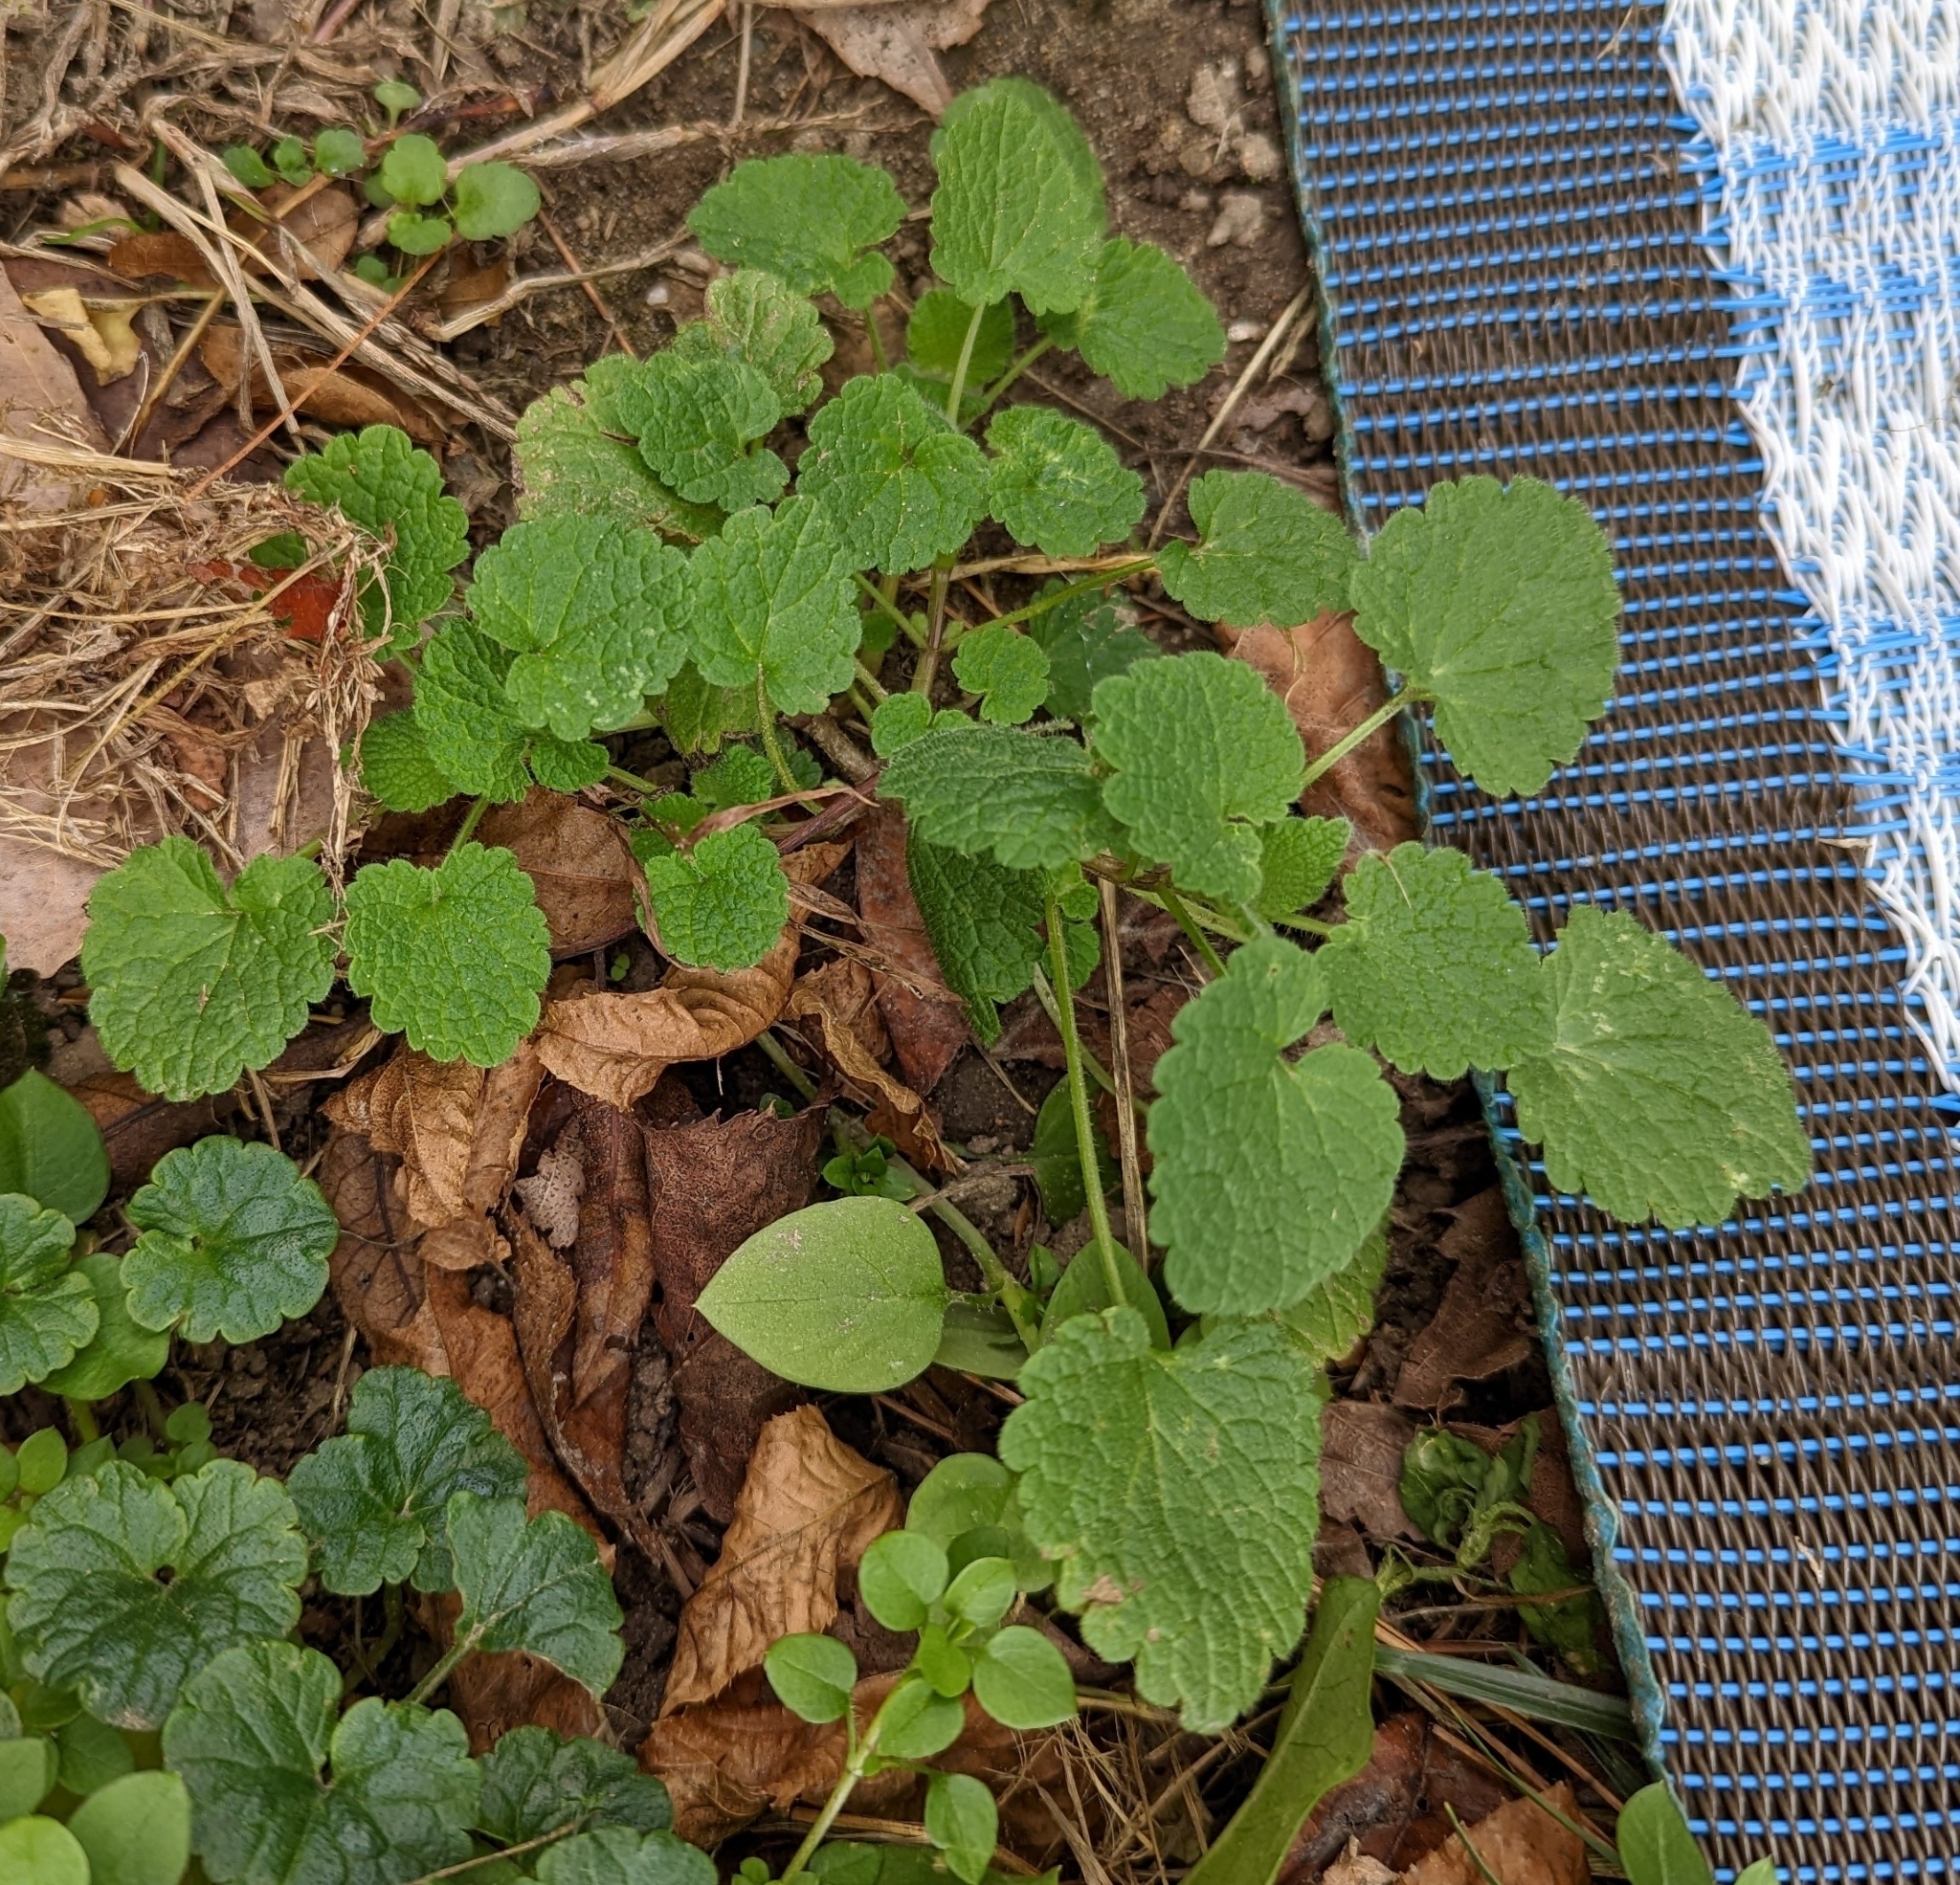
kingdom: Plantae
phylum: Tracheophyta
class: Magnoliopsida
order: Lamiales
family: Lamiaceae
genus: Lamium
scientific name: Lamium purpureum
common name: Red dead-nettle
